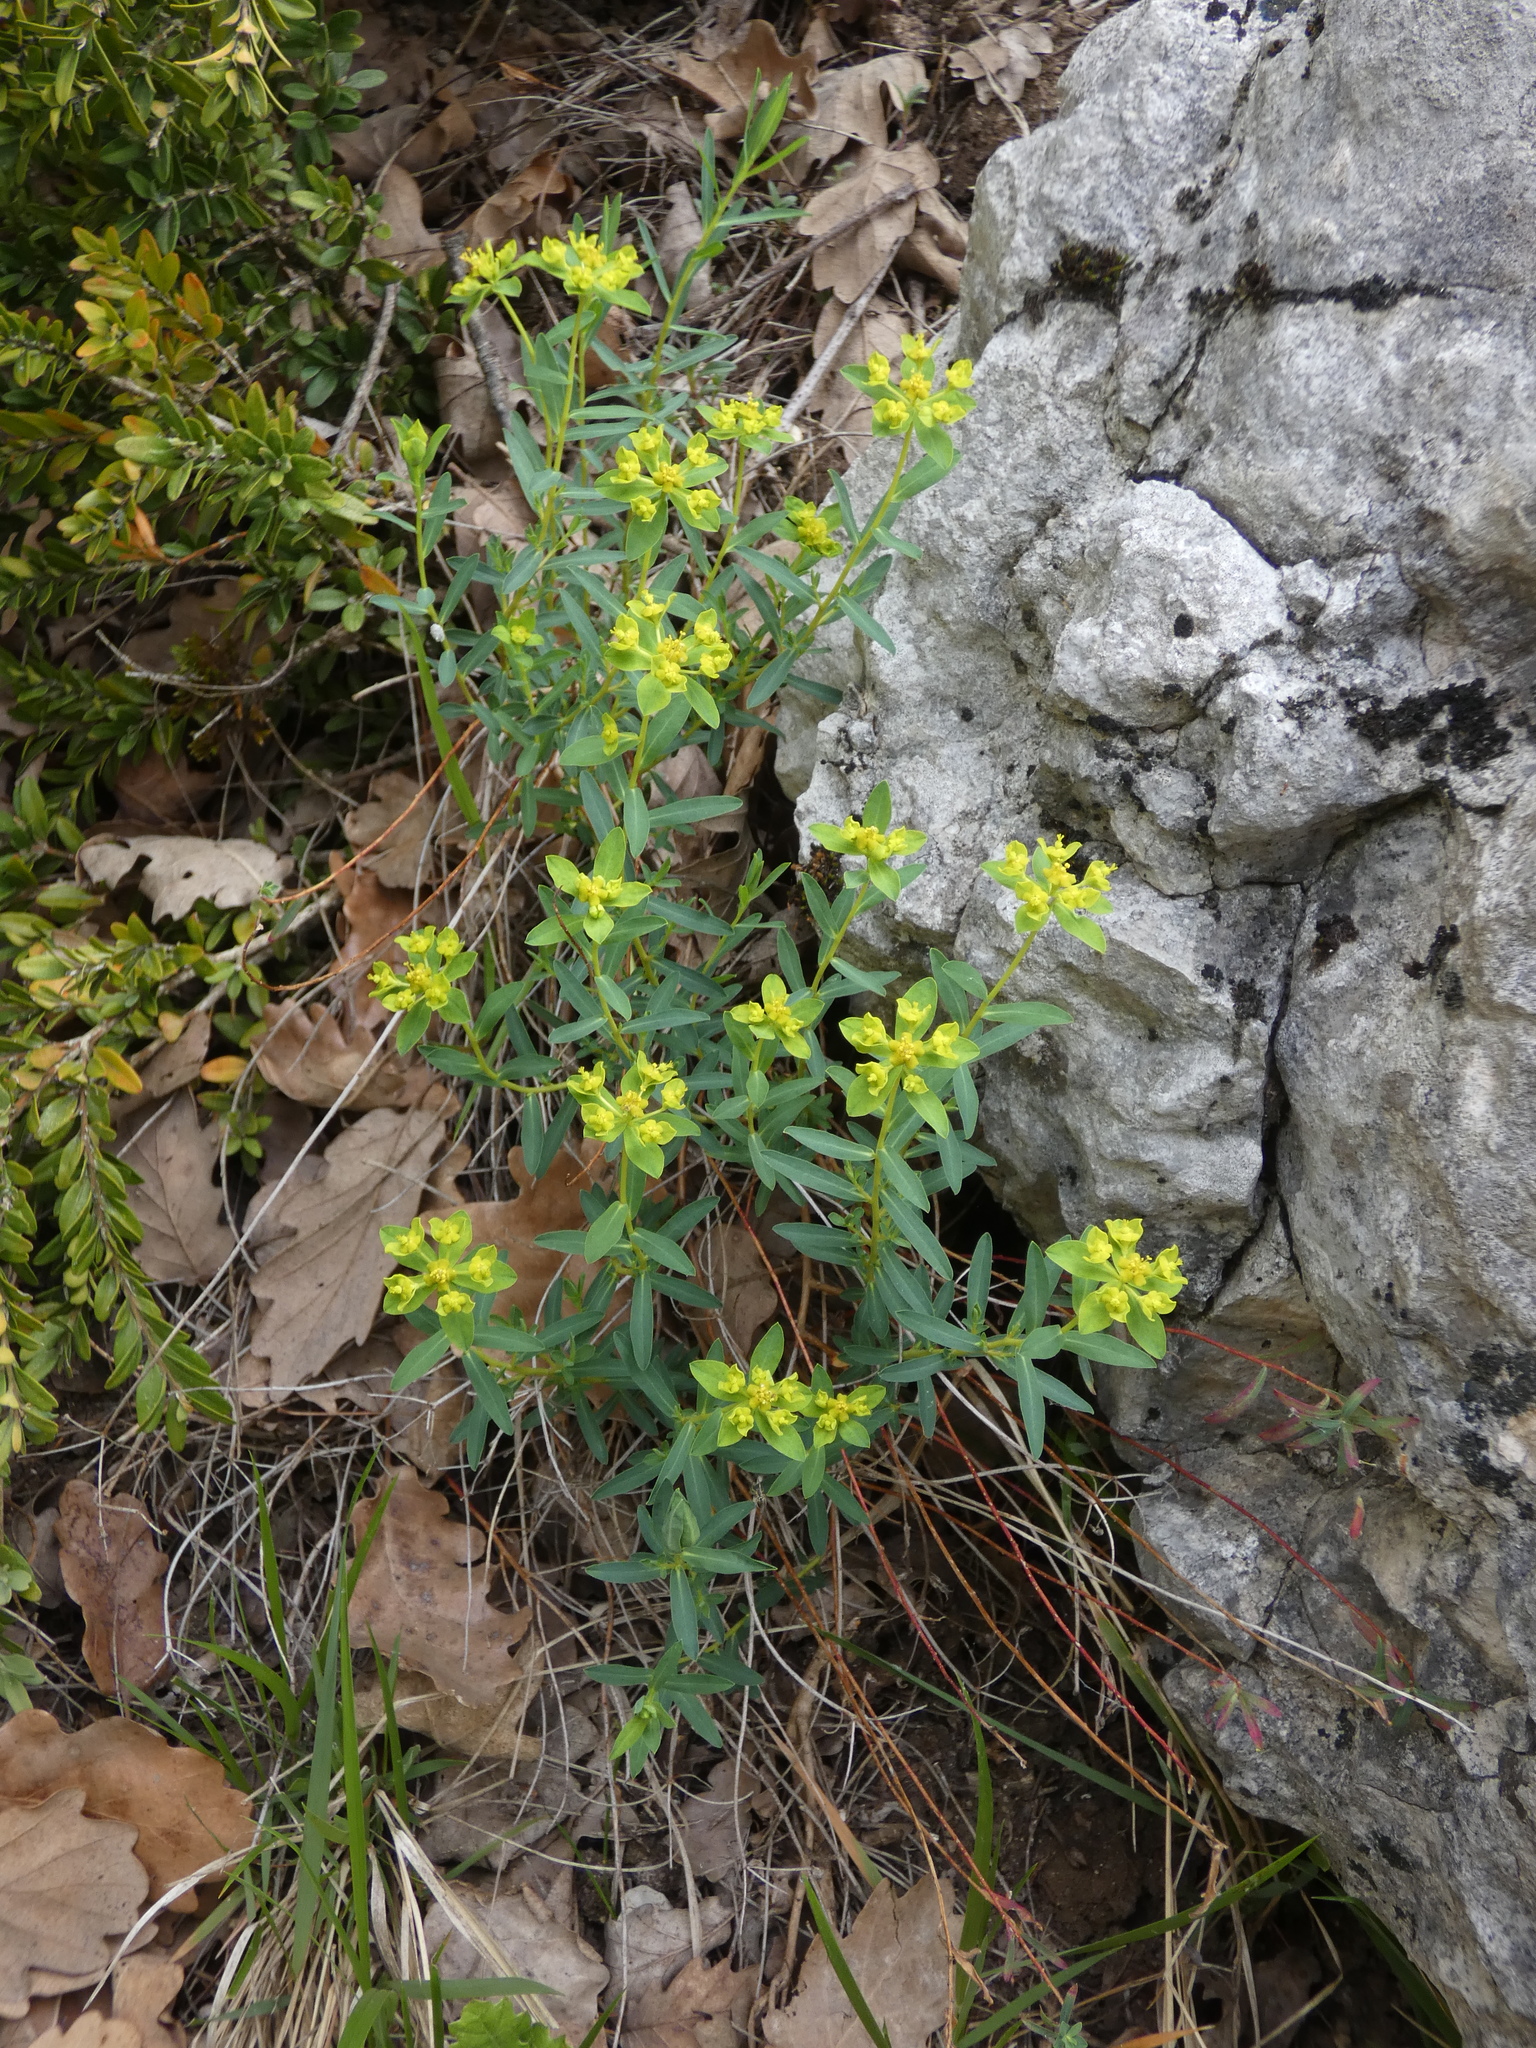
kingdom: Plantae
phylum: Tracheophyta
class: Magnoliopsida
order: Malpighiales
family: Euphorbiaceae
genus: Euphorbia
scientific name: Euphorbia spinosa
